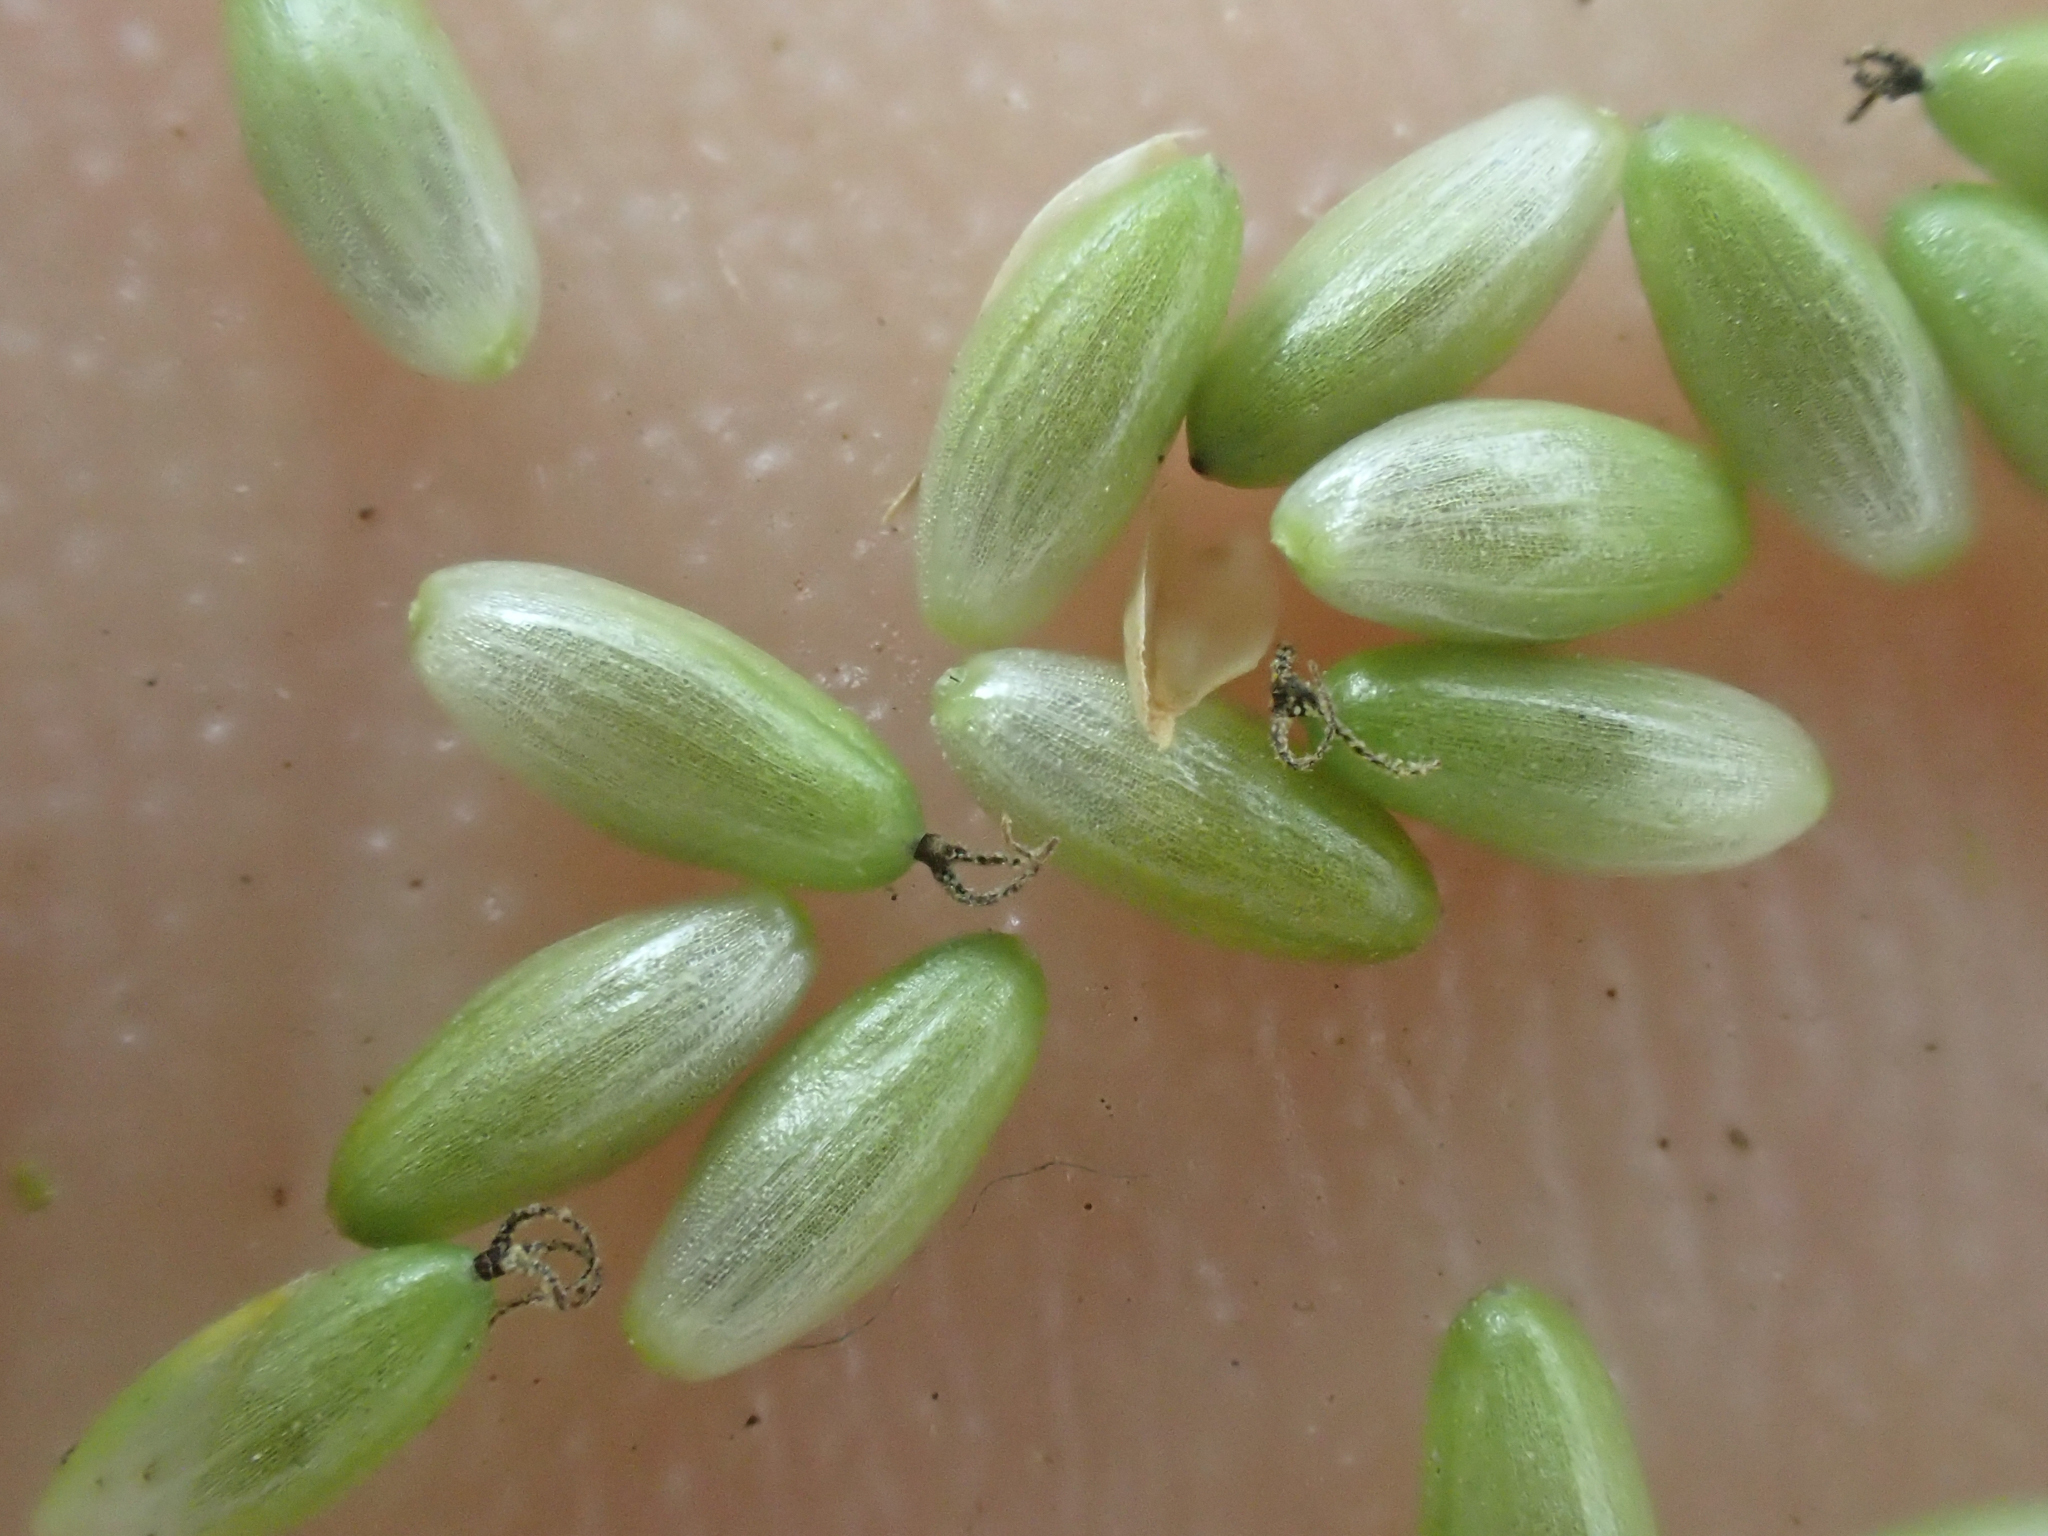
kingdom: Plantae
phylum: Tracheophyta
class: Liliopsida
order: Poales
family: Cyperaceae
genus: Carex
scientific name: Carex pallescens
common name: Pale sedge
